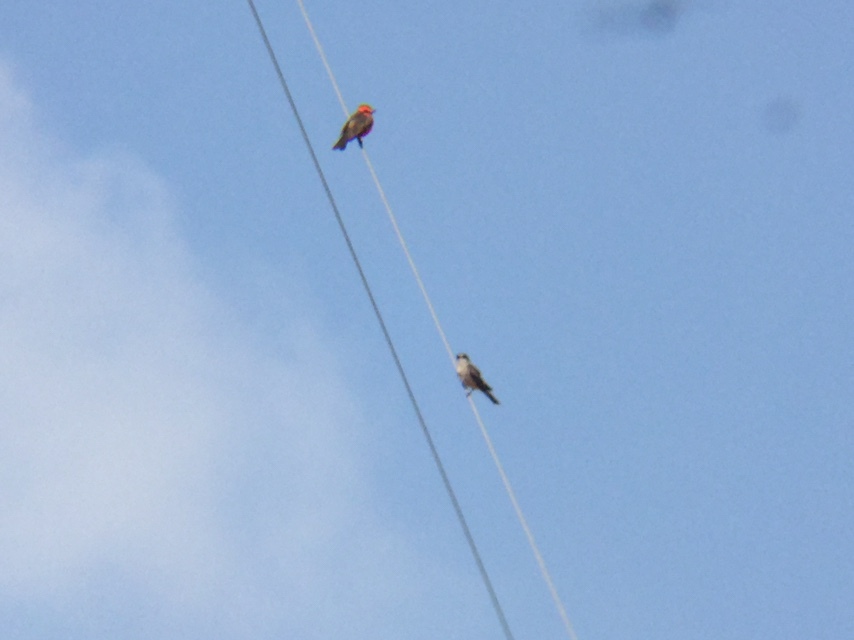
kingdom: Animalia
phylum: Chordata
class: Aves
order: Passeriformes
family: Tyrannidae
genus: Pyrocephalus
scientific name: Pyrocephalus rubinus
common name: Vermilion flycatcher
